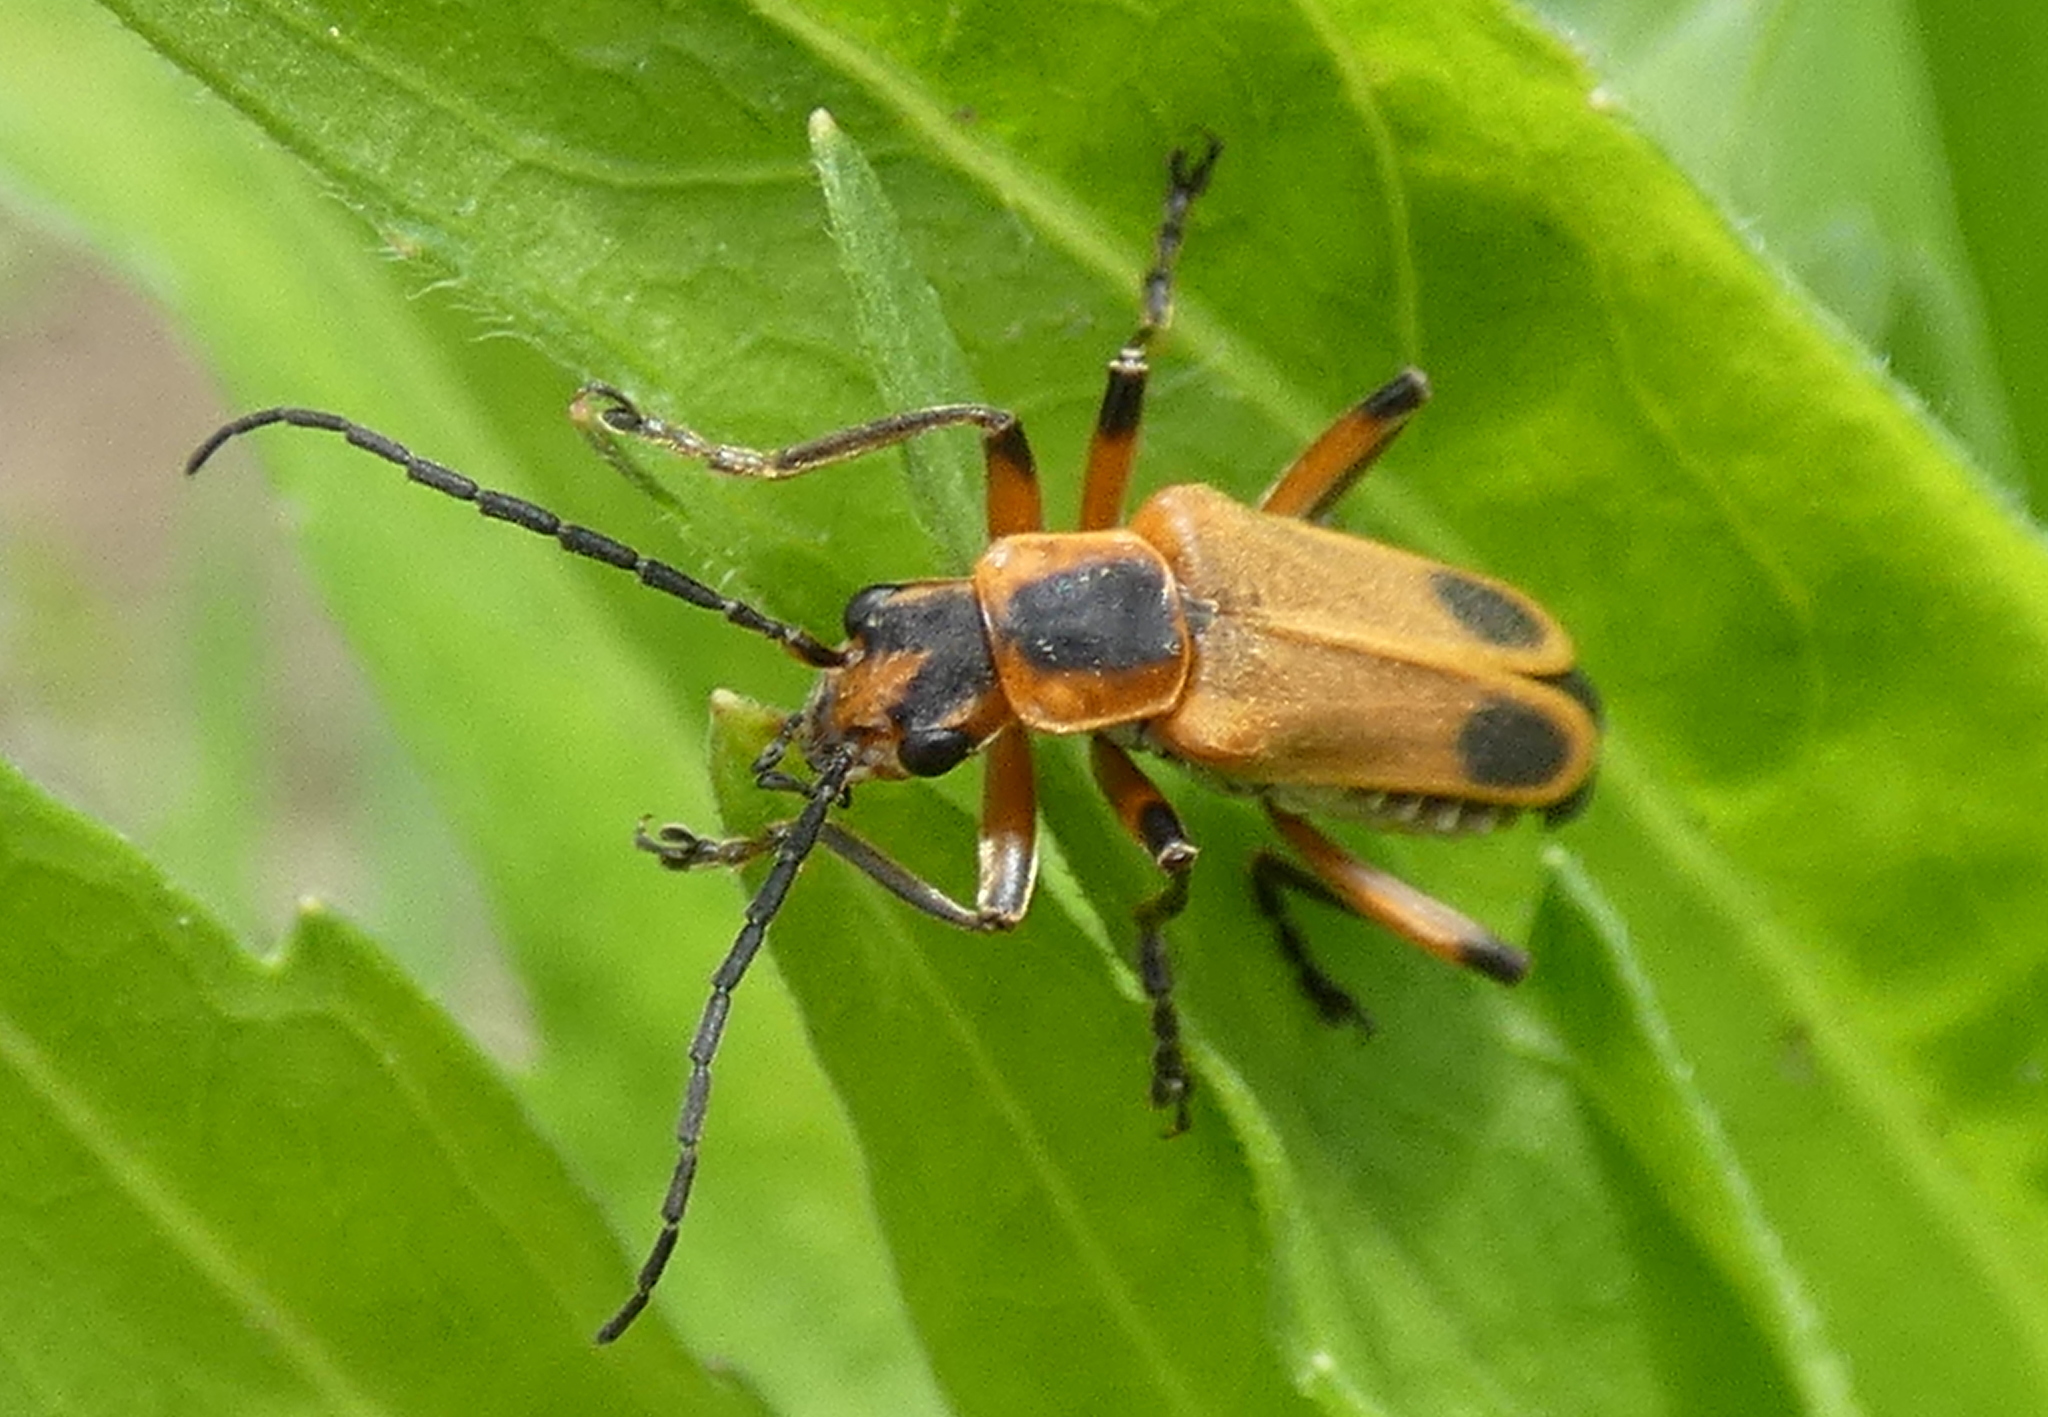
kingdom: Animalia
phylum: Arthropoda
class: Insecta
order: Coleoptera
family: Cantharidae
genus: Chauliognathus
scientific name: Chauliognathus marginatus
